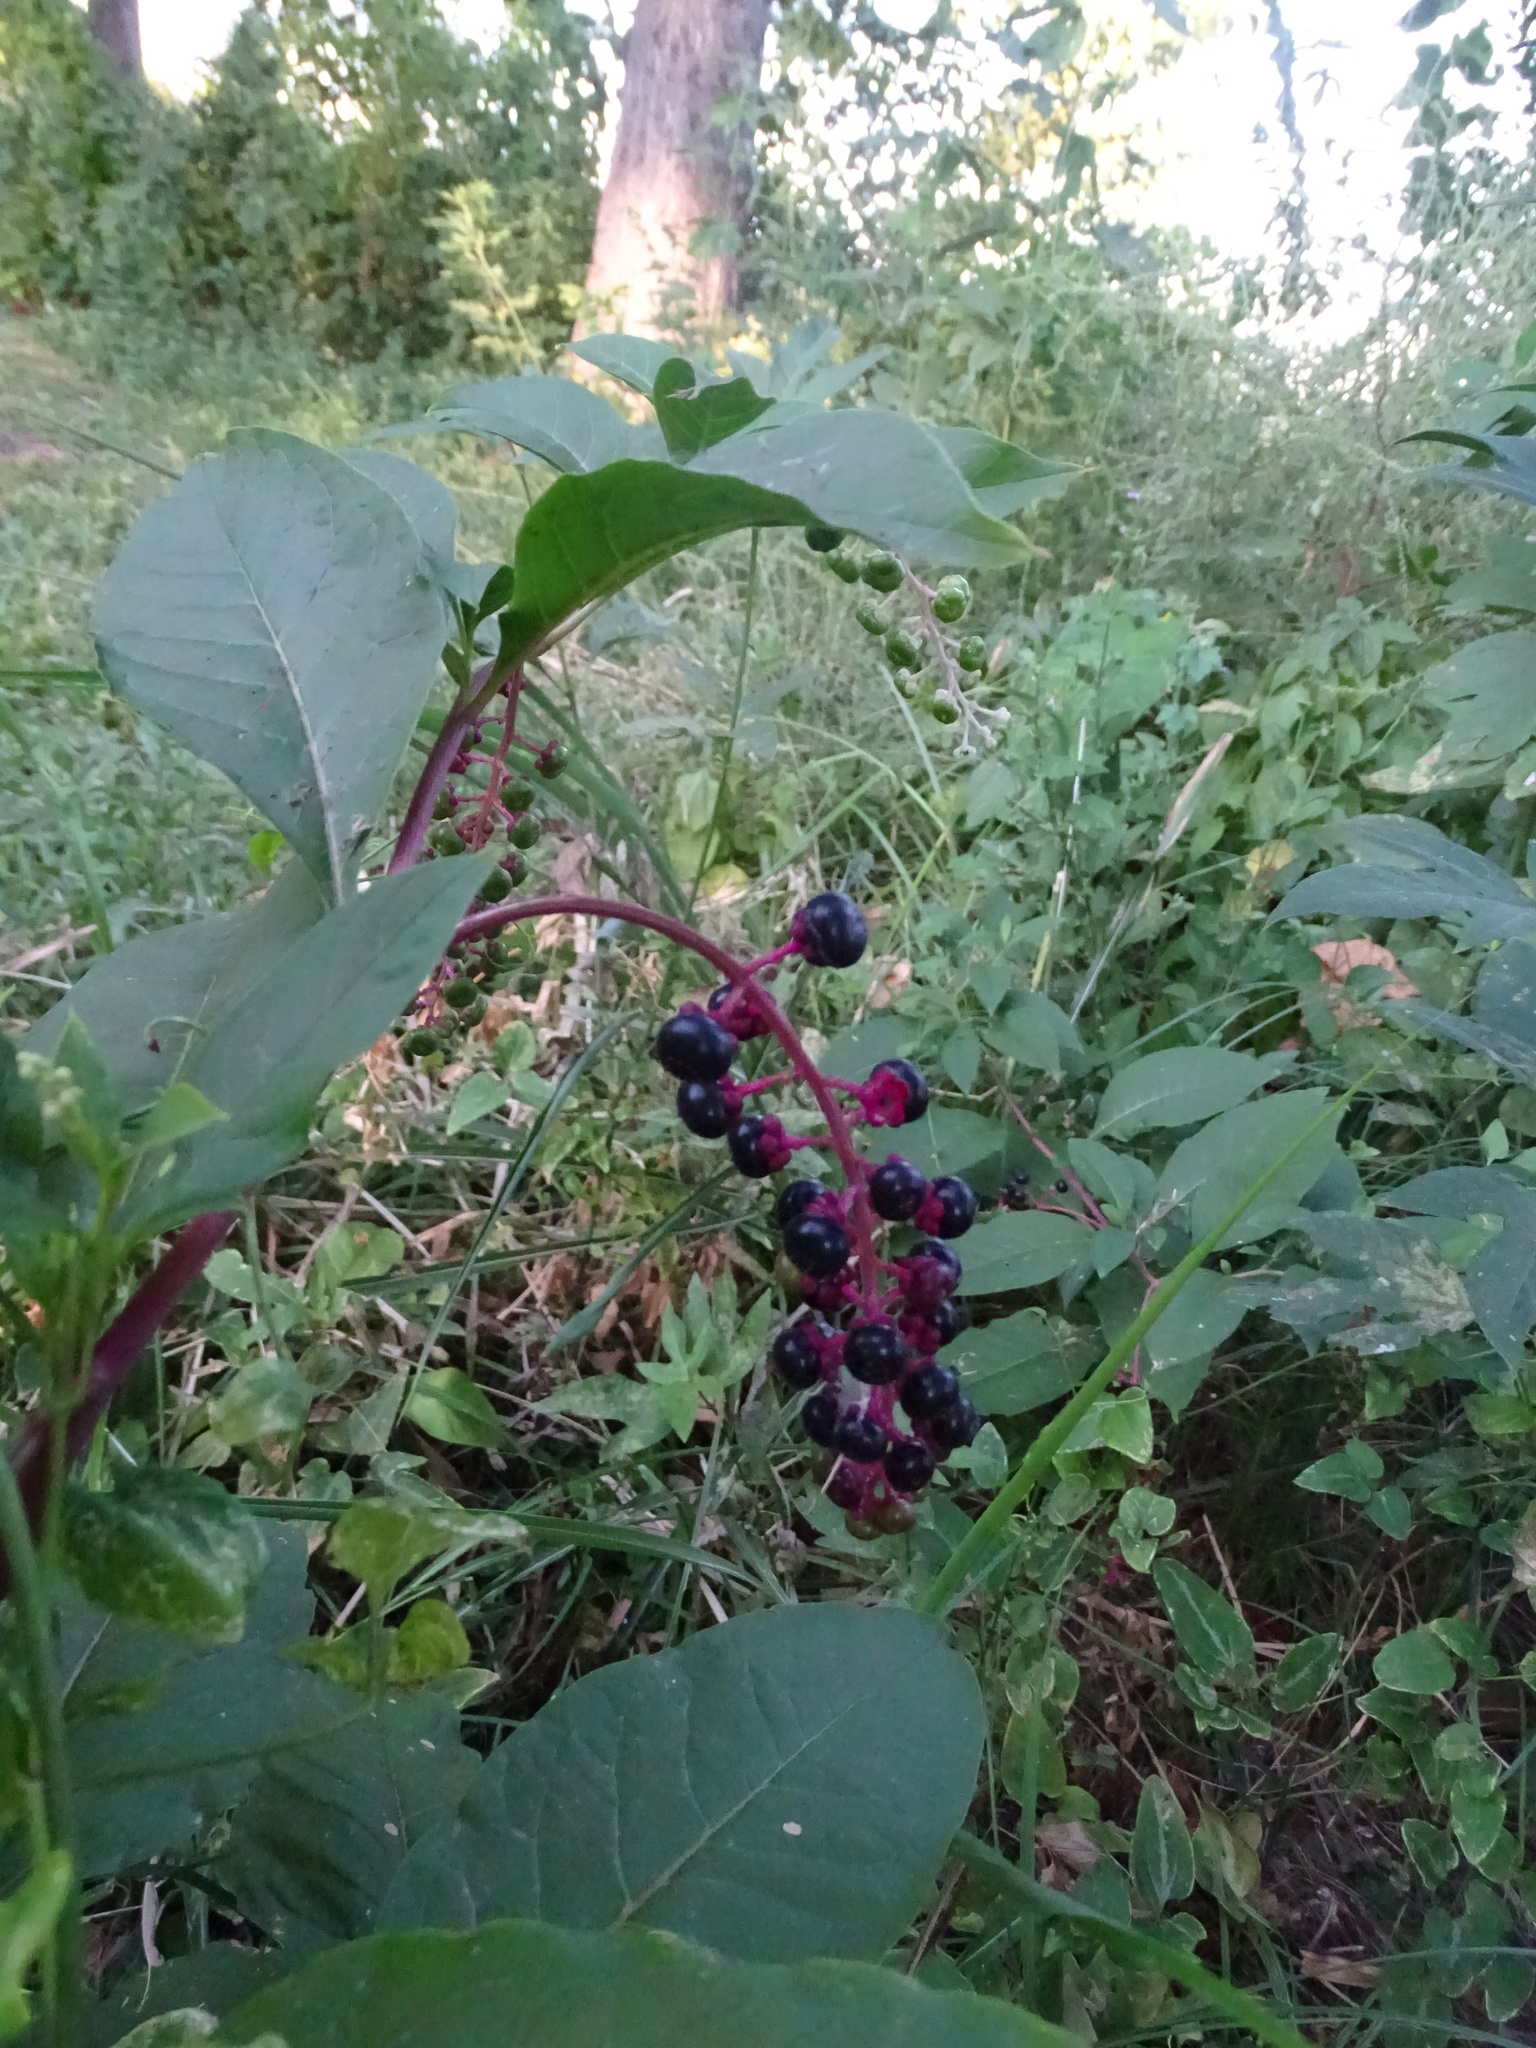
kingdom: Plantae
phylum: Tracheophyta
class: Magnoliopsida
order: Caryophyllales
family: Phytolaccaceae
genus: Phytolacca
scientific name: Phytolacca americana
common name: American pokeweed
